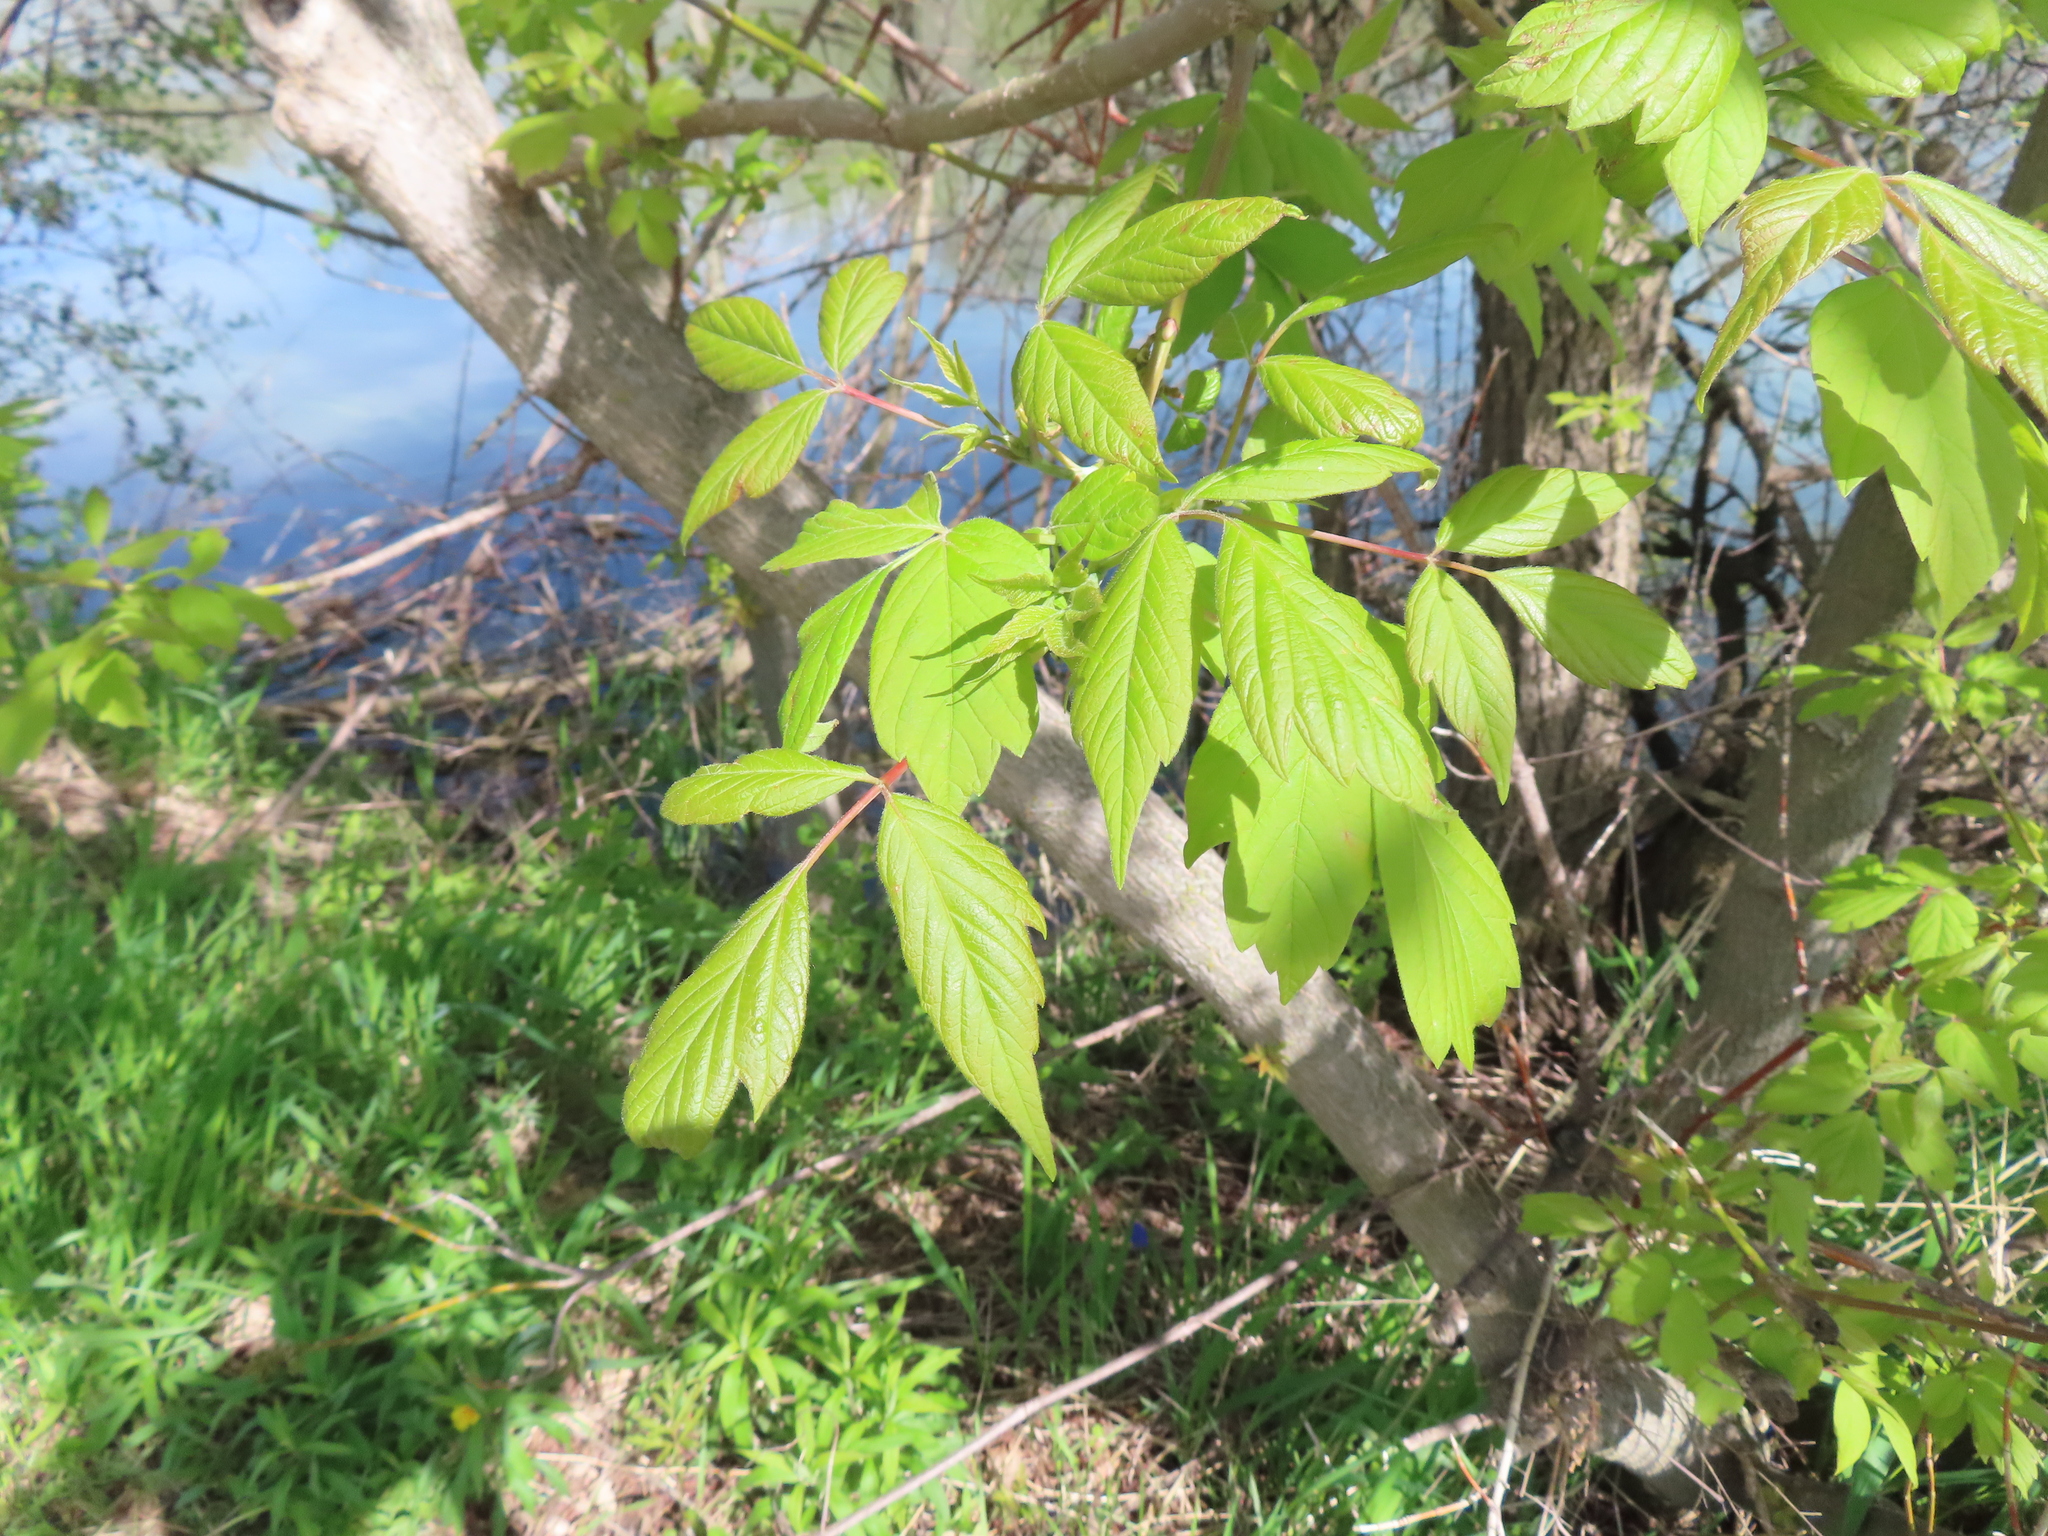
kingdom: Plantae
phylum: Tracheophyta
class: Magnoliopsida
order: Sapindales
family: Sapindaceae
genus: Acer
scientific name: Acer negundo
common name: Ashleaf maple
